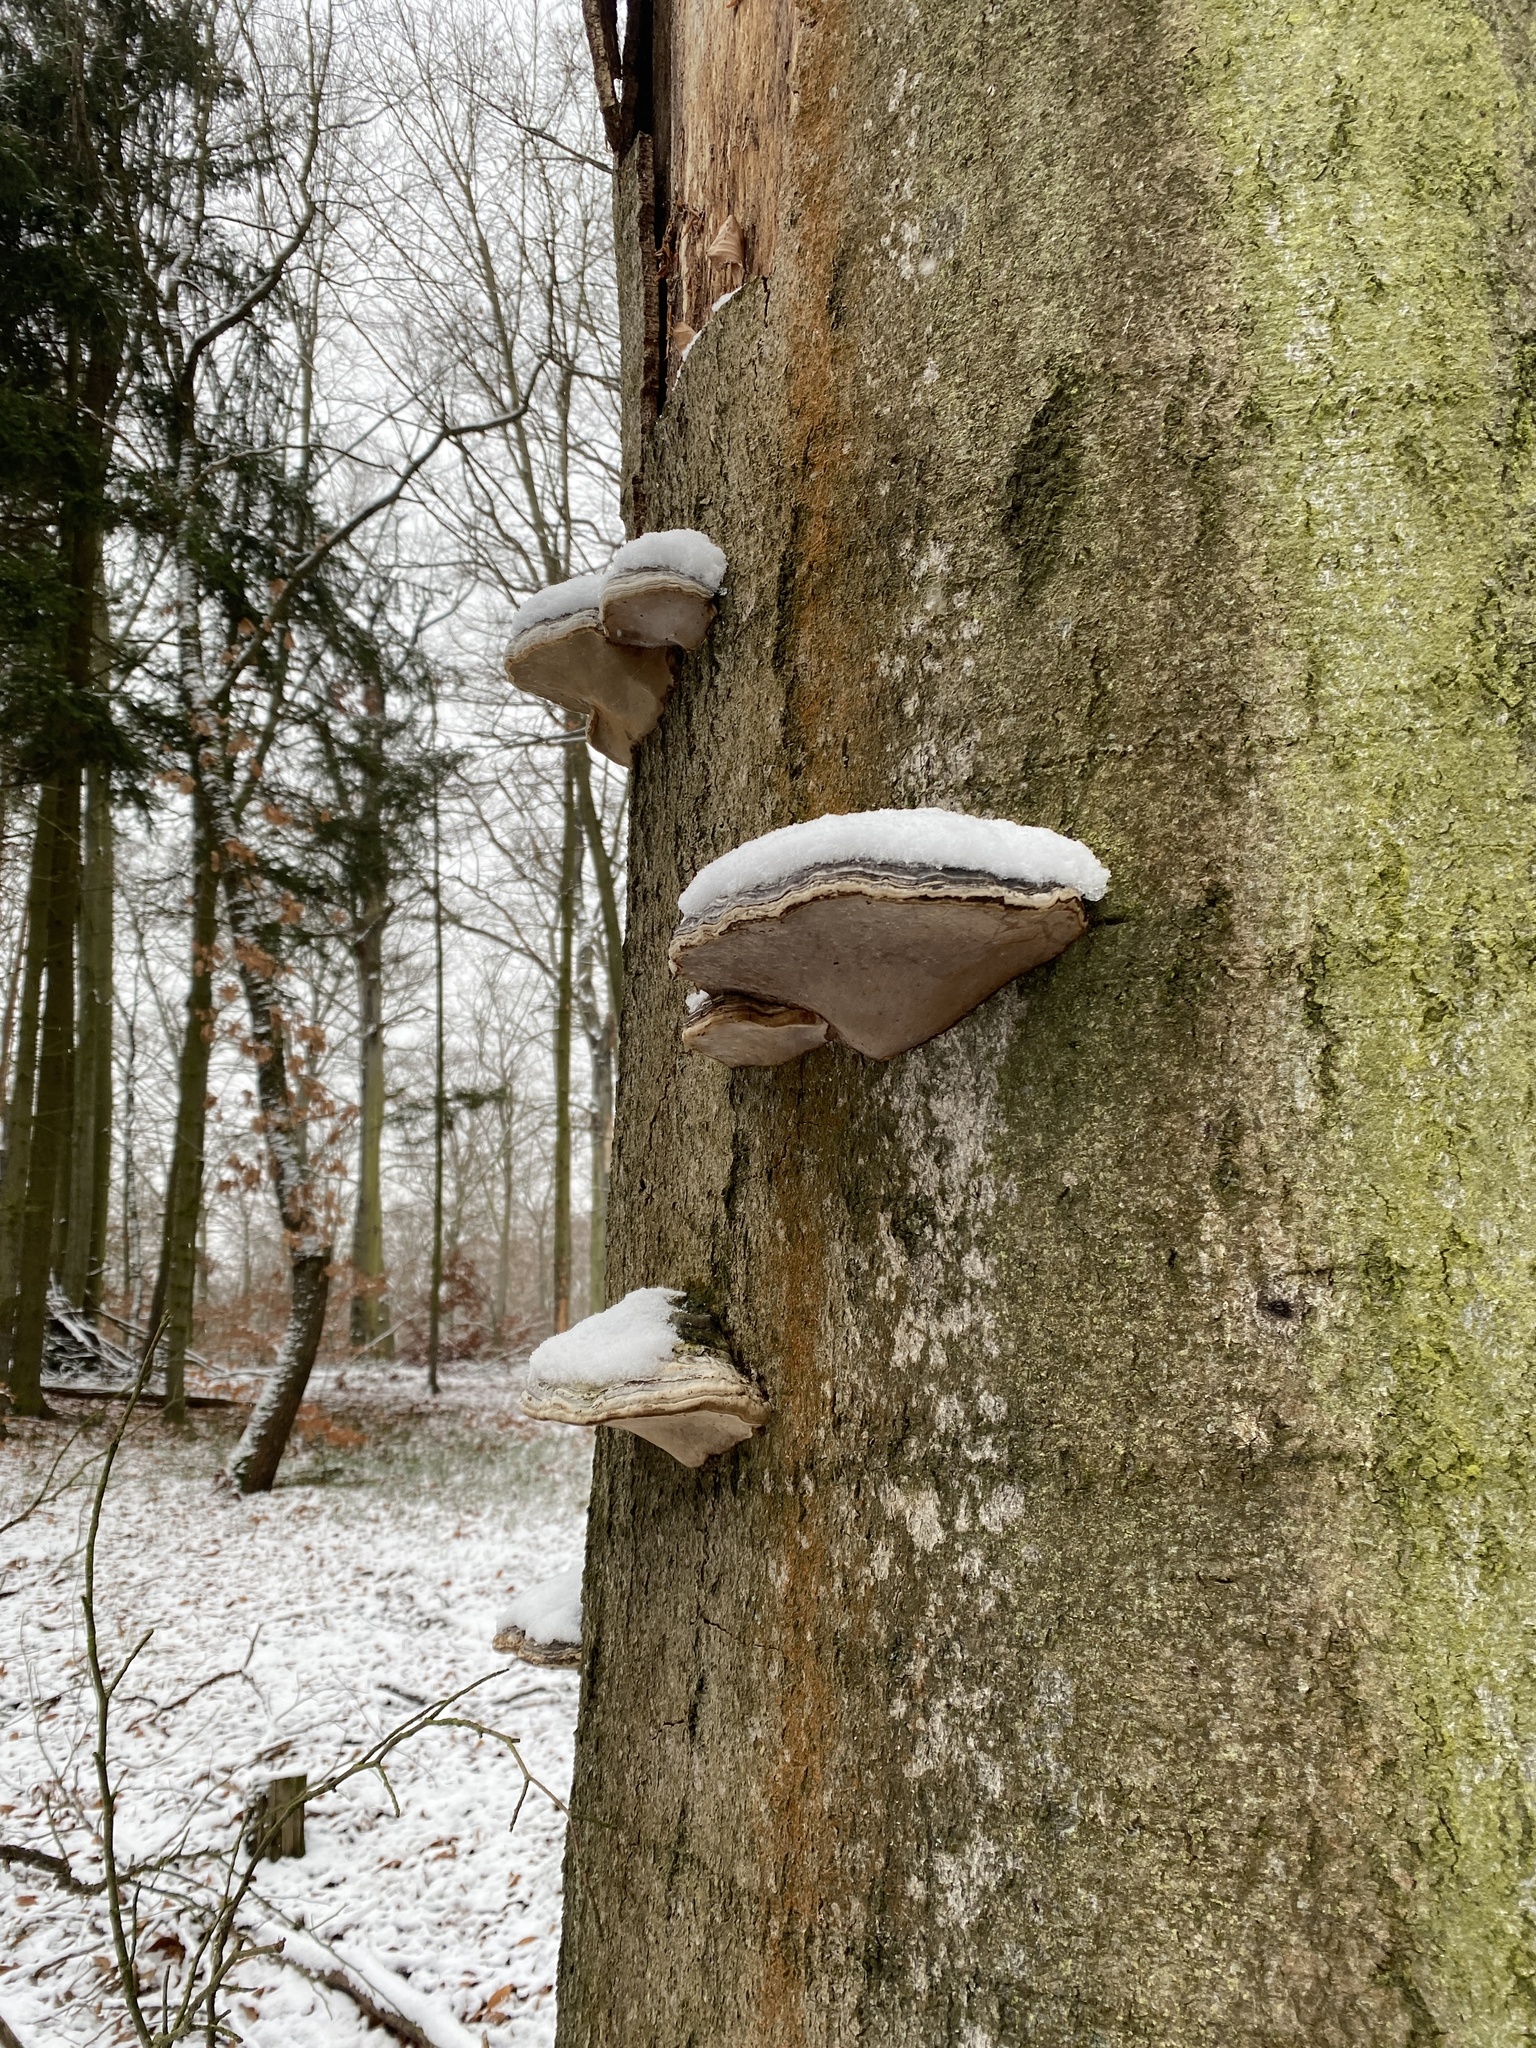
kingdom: Fungi
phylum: Basidiomycota
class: Agaricomycetes
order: Polyporales
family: Polyporaceae
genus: Fomes
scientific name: Fomes fomentarius
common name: Hoof fungus
